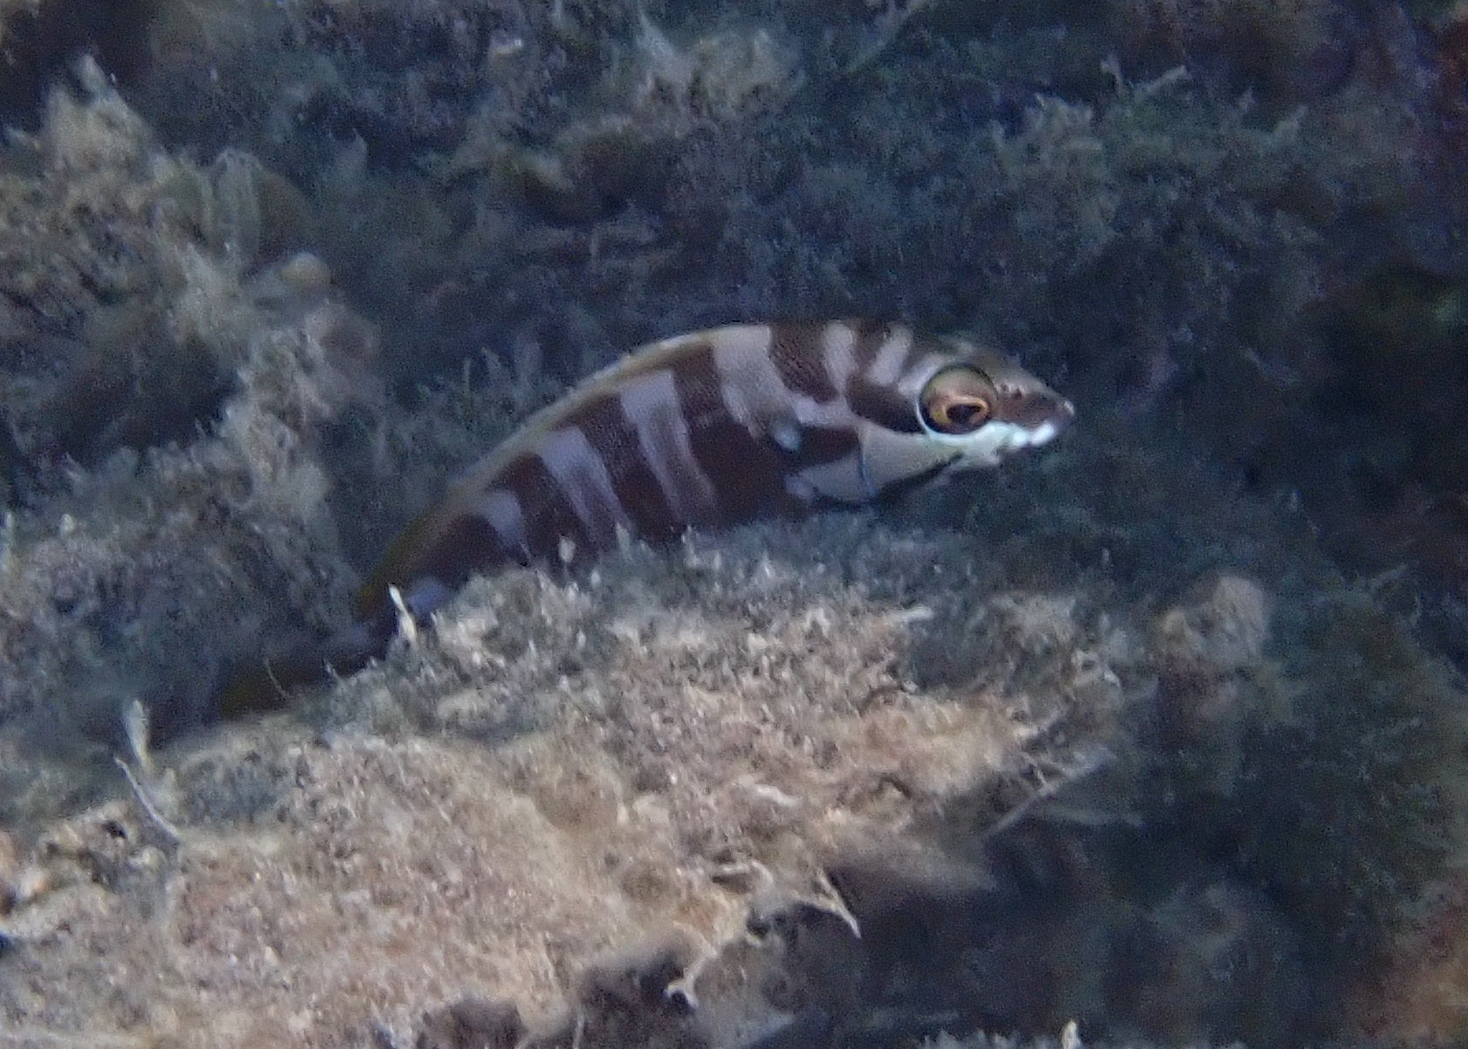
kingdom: Animalia
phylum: Chordata
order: Perciformes
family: Serranidae
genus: Epinephelus
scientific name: Epinephelus fasciatus
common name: Blacktip grouper
